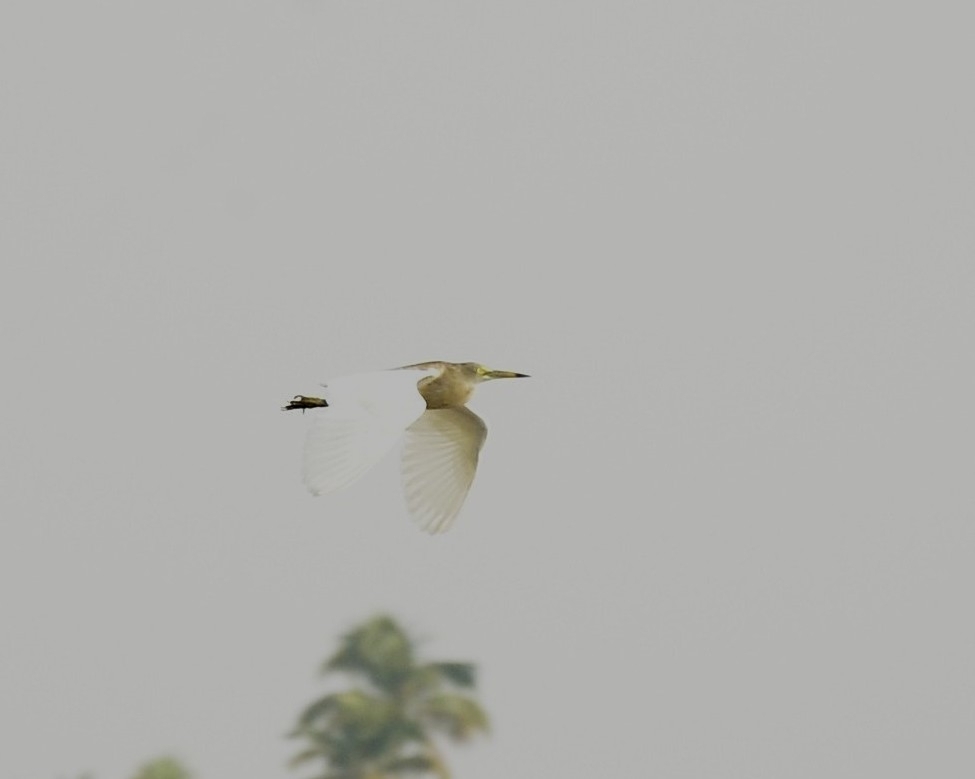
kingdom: Animalia
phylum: Chordata
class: Aves
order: Pelecaniformes
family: Ardeidae
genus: Ardeola
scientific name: Ardeola grayii
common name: Indian pond heron
